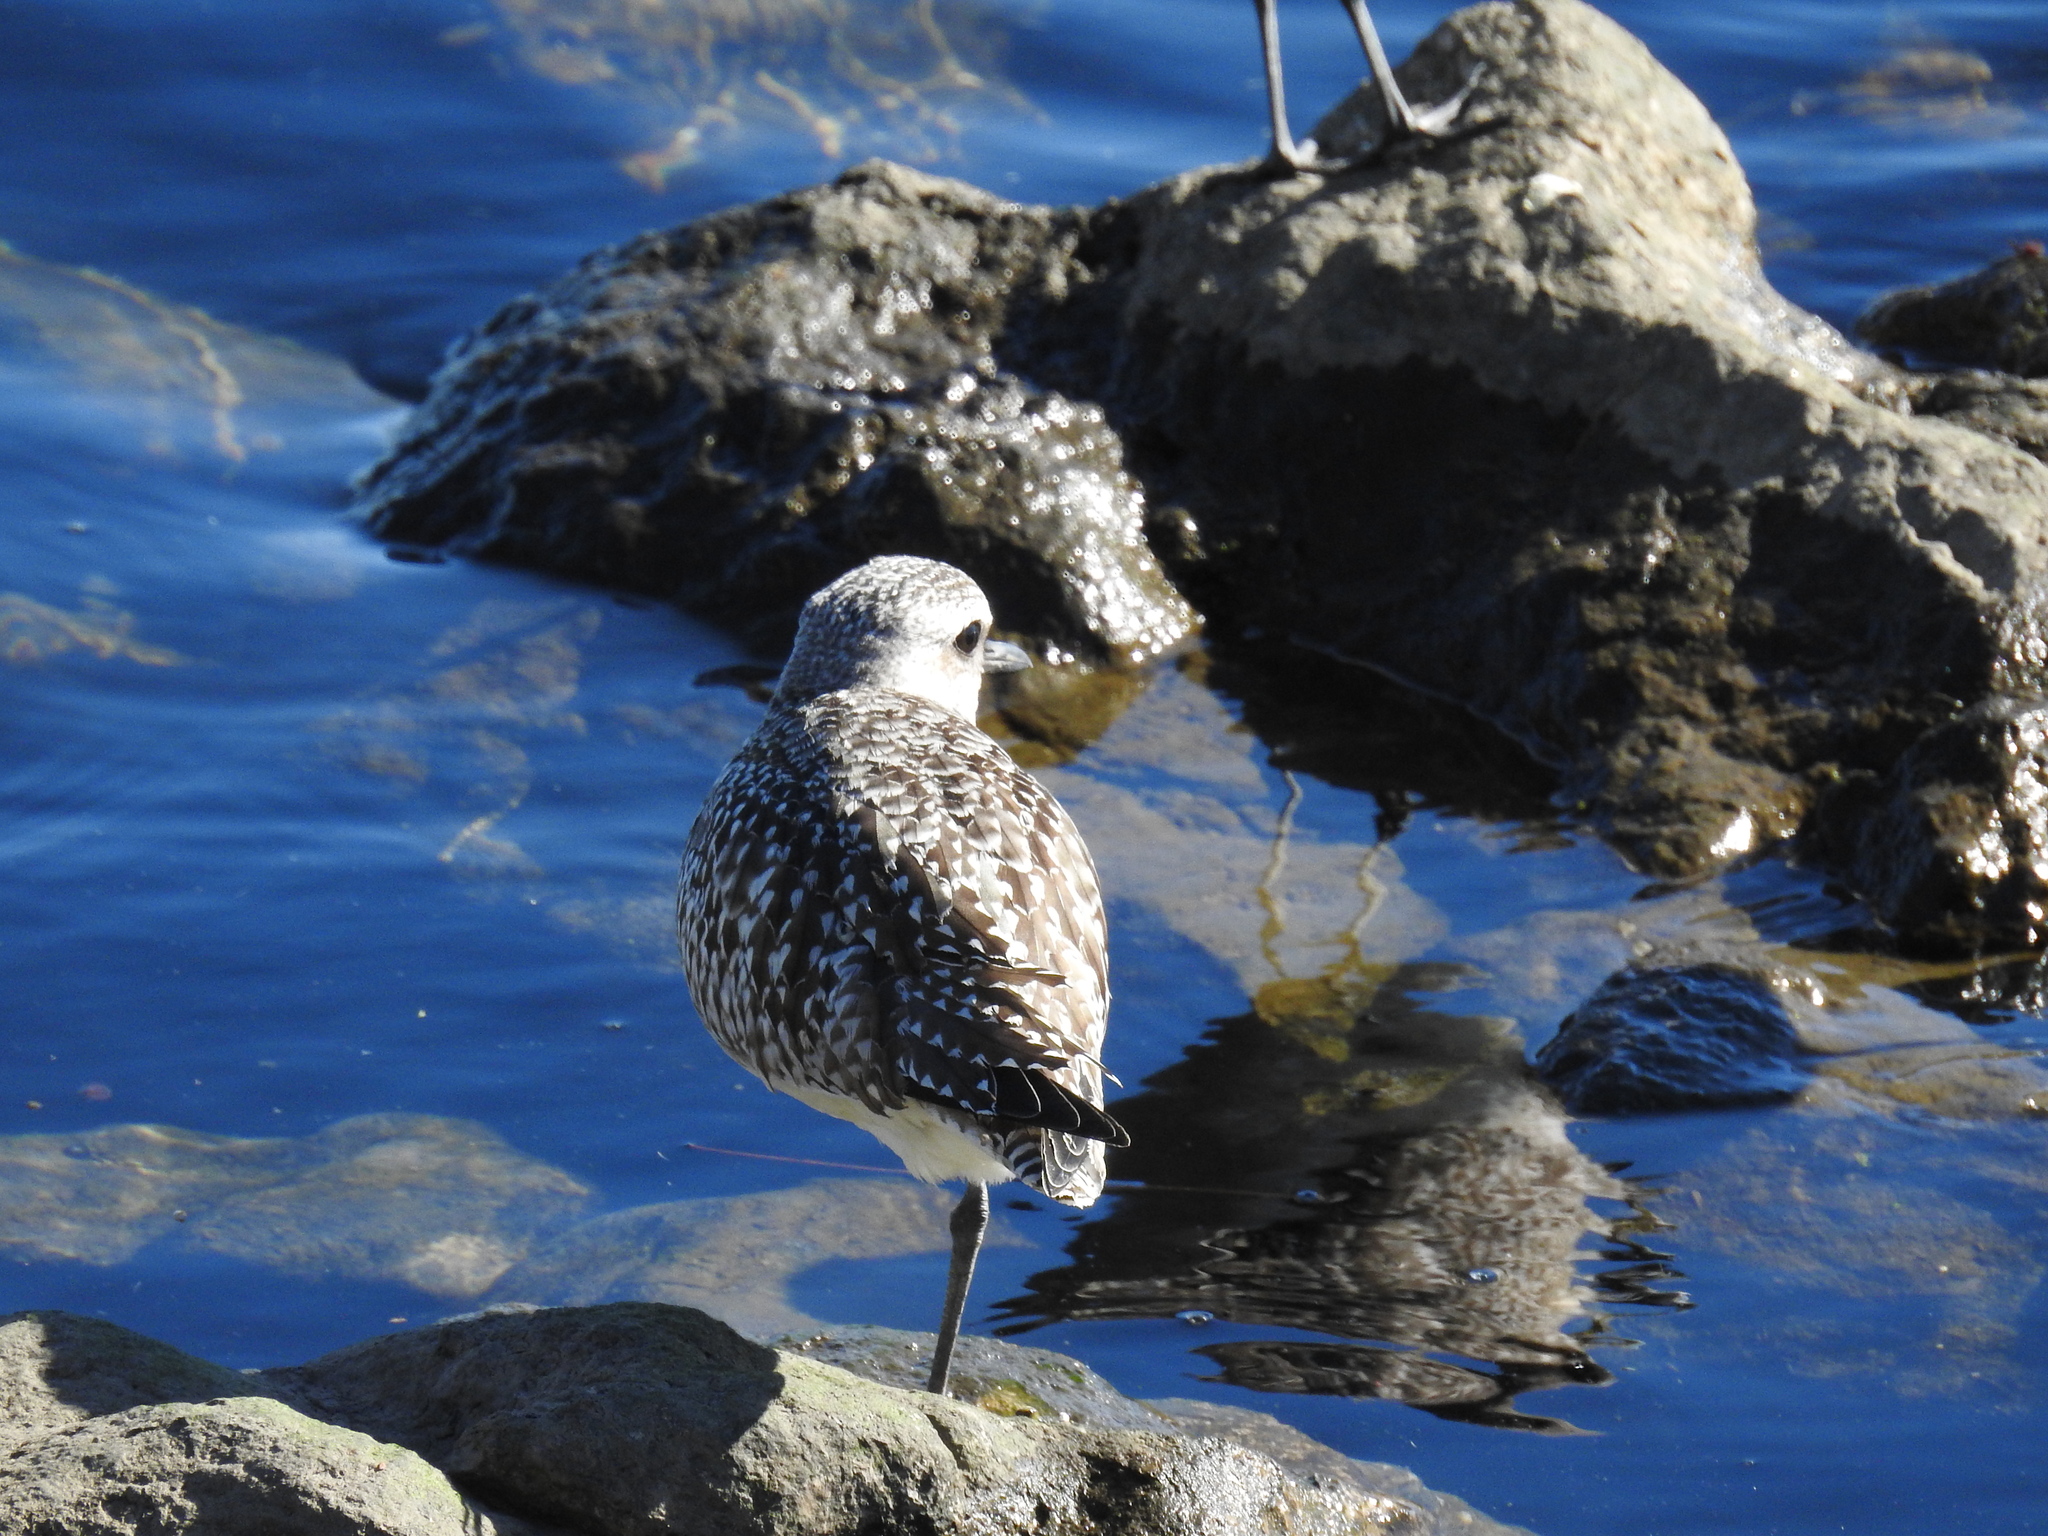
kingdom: Animalia
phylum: Chordata
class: Aves
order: Charadriiformes
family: Charadriidae
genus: Pluvialis
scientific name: Pluvialis squatarola
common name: Grey plover
